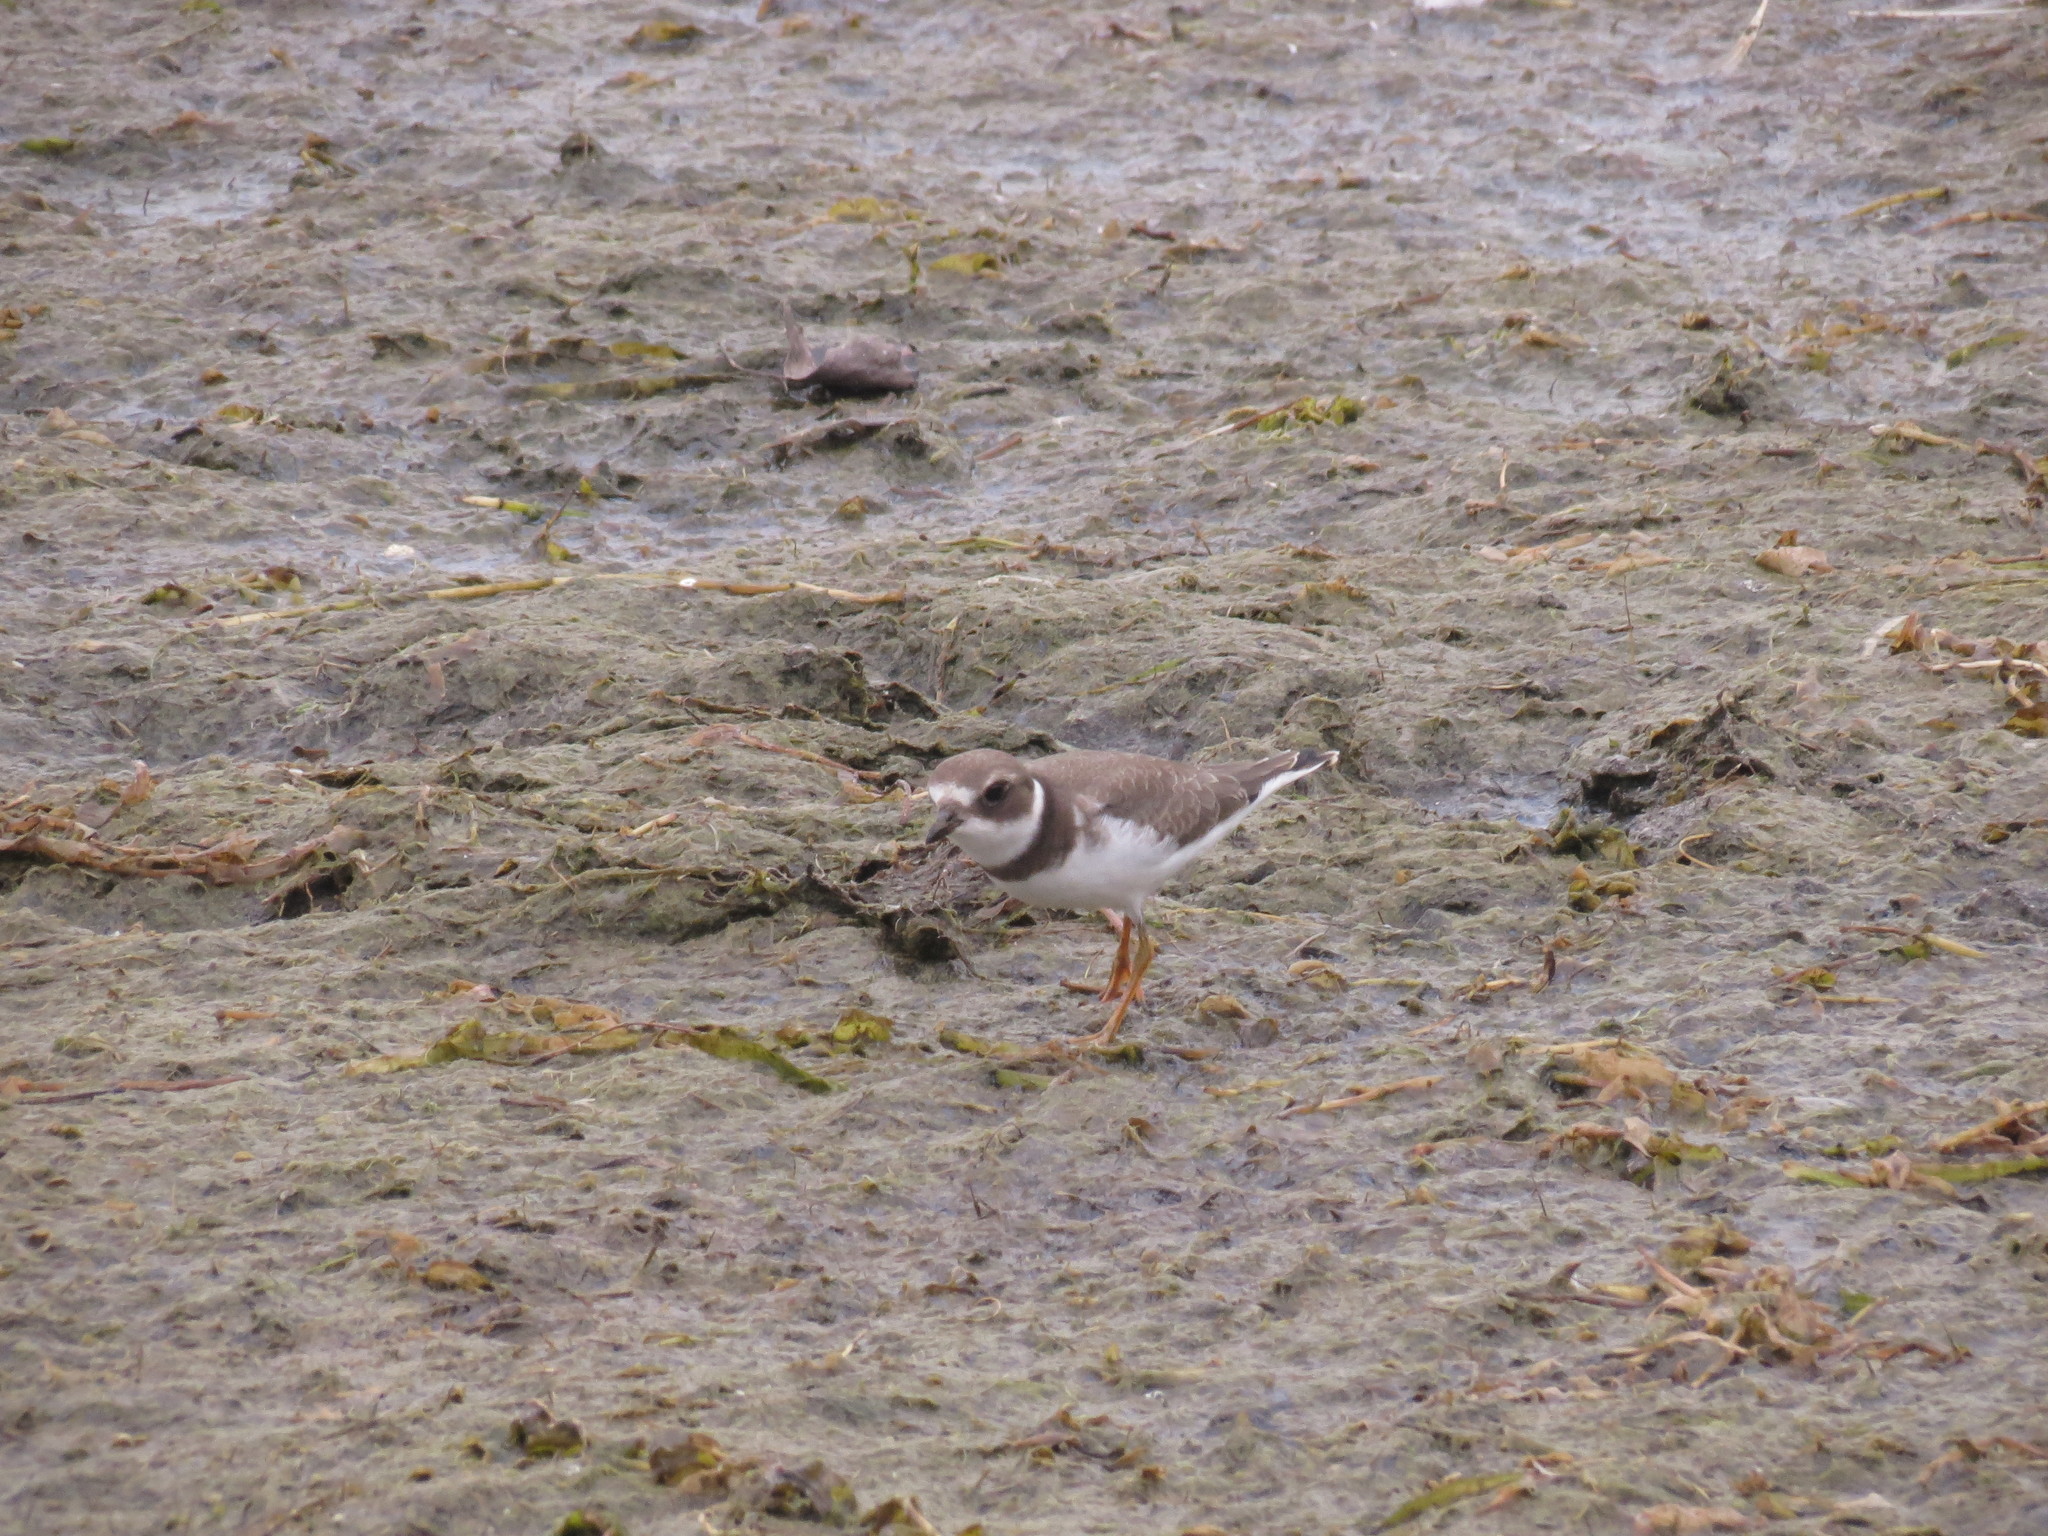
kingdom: Animalia
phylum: Chordata
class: Aves
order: Charadriiformes
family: Charadriidae
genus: Charadrius
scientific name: Charadrius semipalmatus
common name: Semipalmated plover
